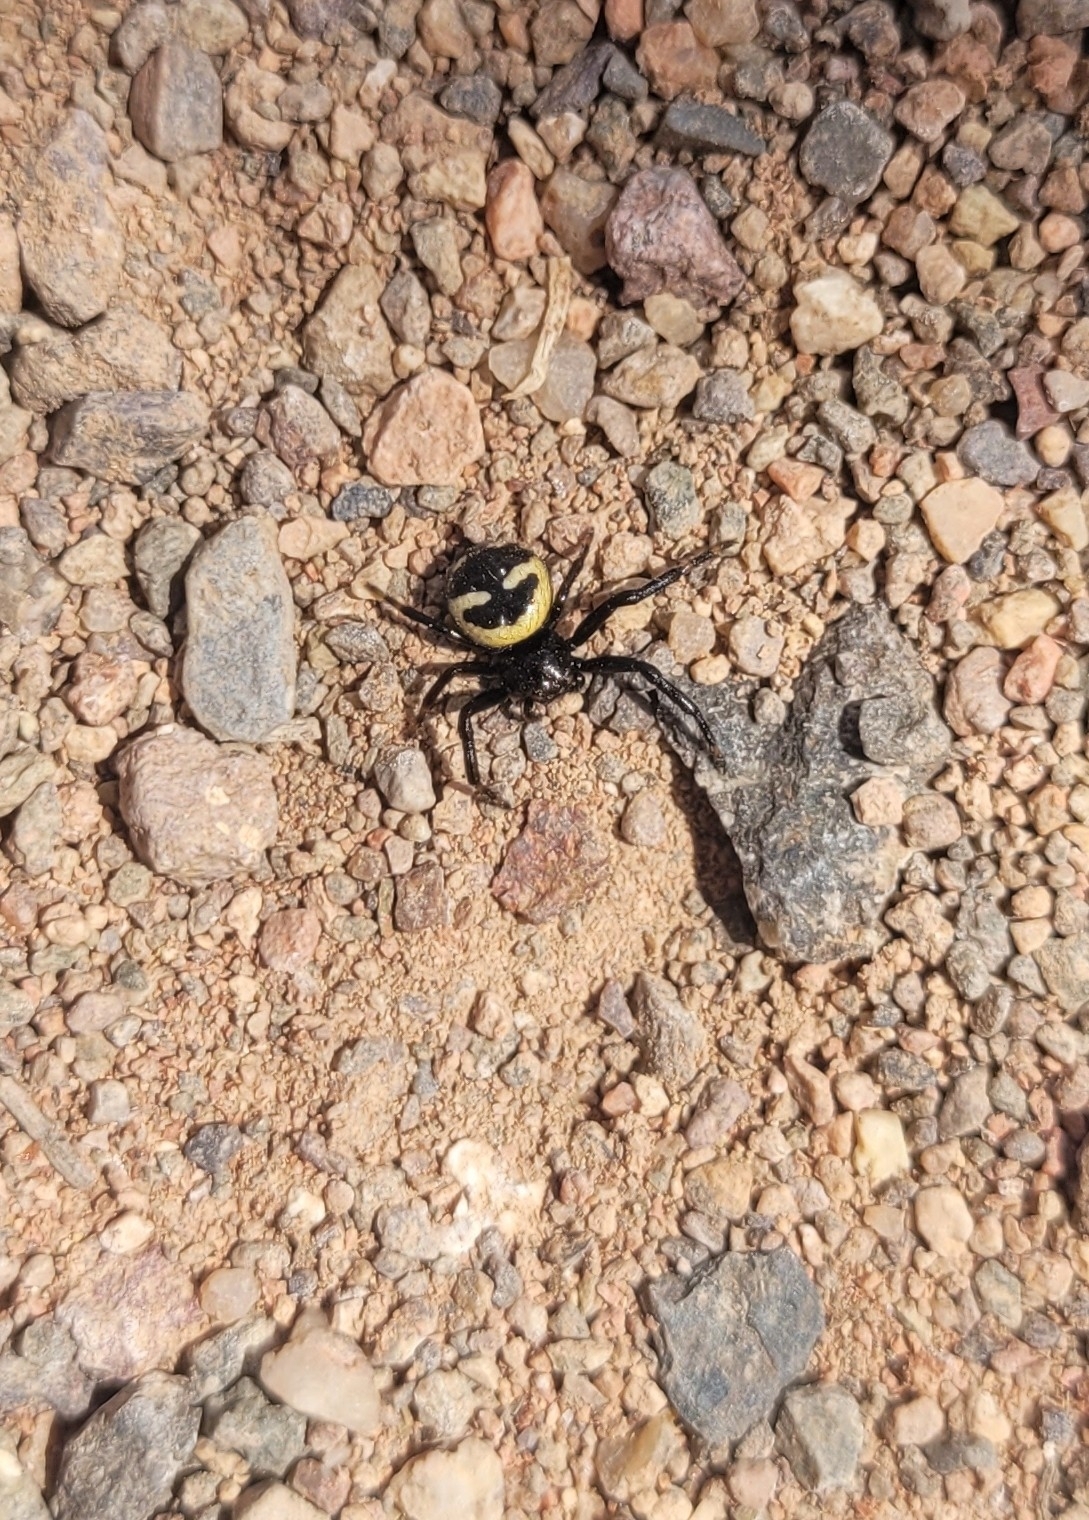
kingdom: Animalia
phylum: Arthropoda
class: Arachnida
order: Araneae
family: Thomisidae
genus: Synema
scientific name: Synema utotchkini
